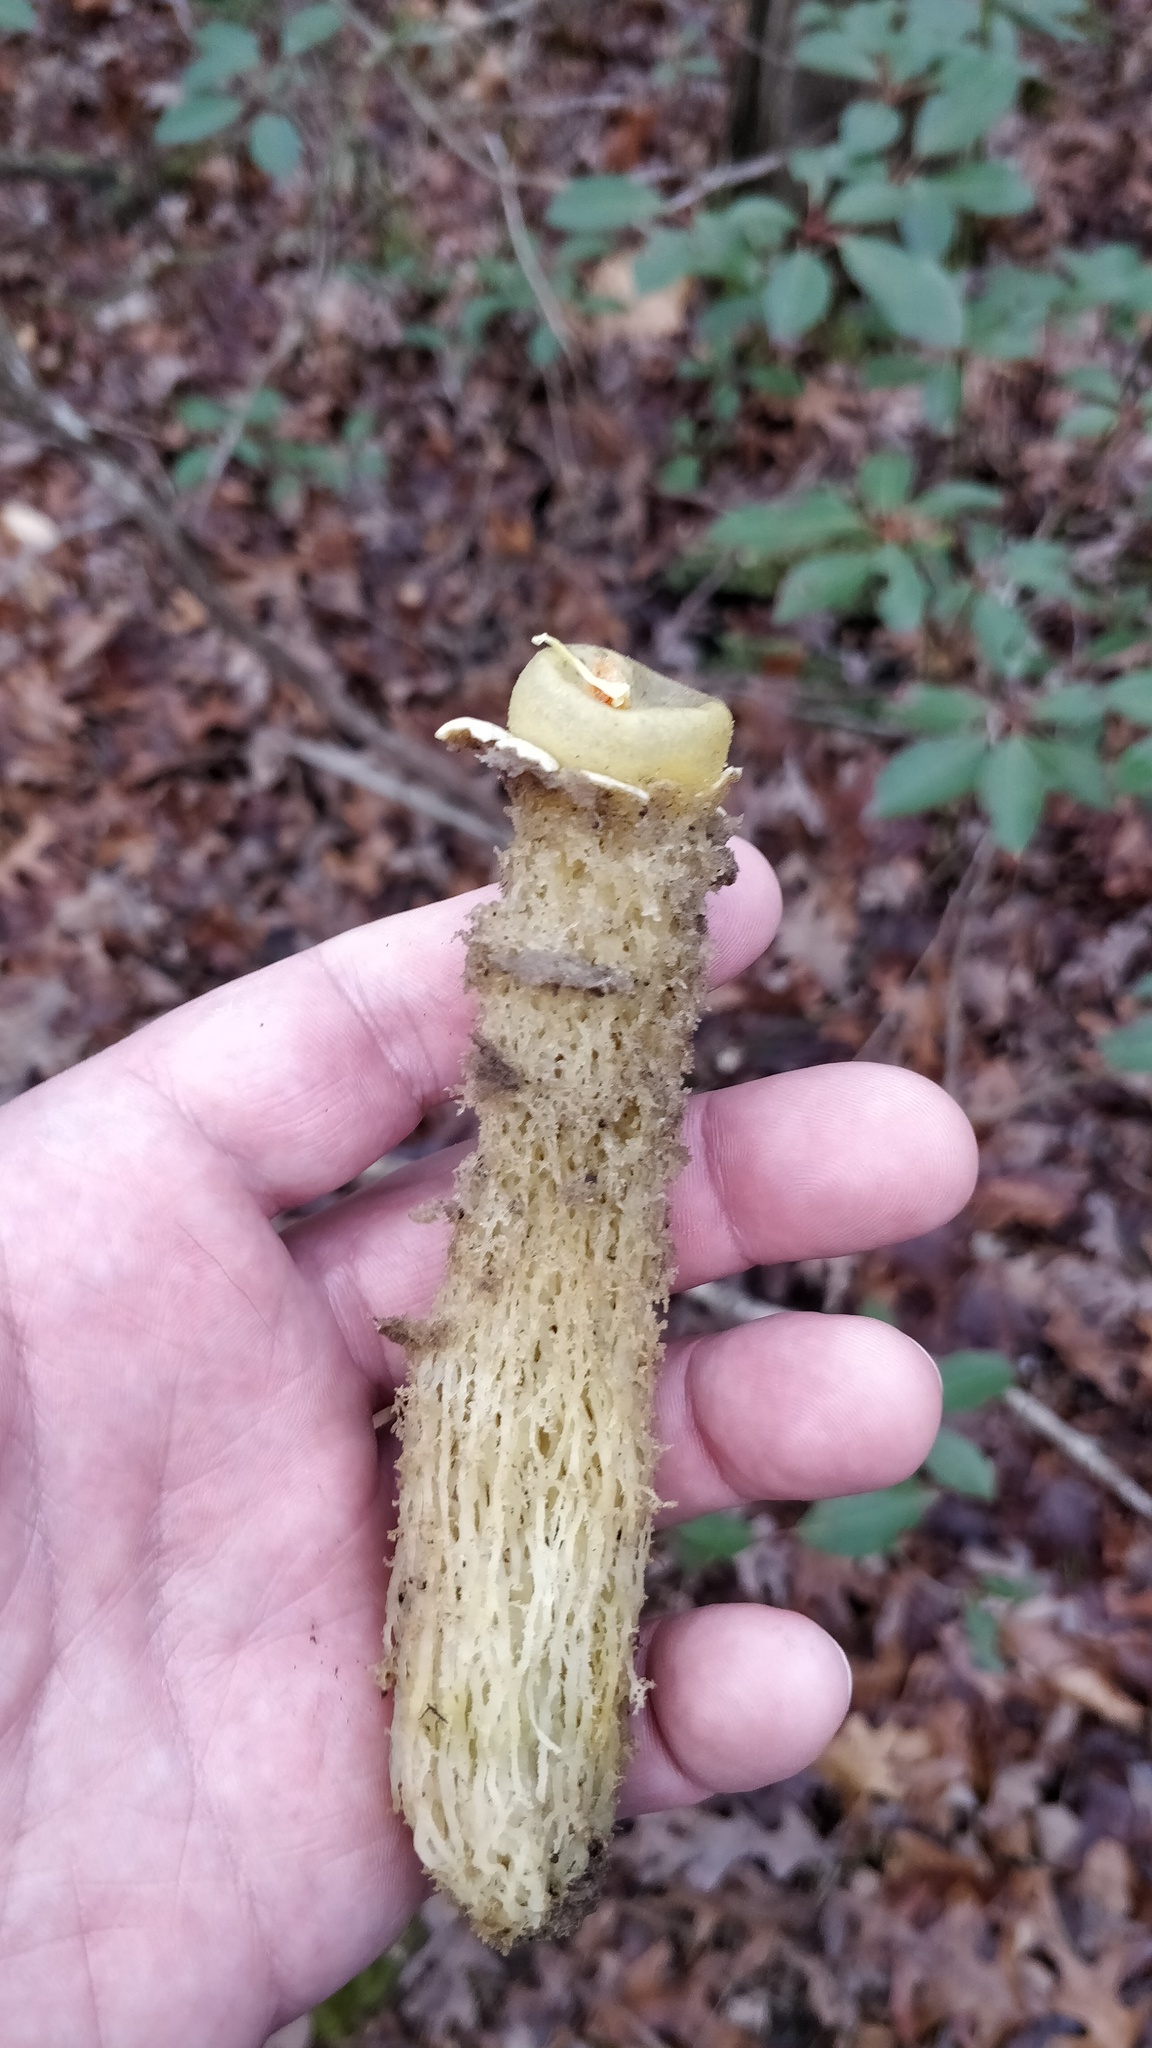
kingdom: Fungi
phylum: Basidiomycota
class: Agaricomycetes
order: Boletales
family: Calostomataceae
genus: Calostoma
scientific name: Calostoma lutescens
